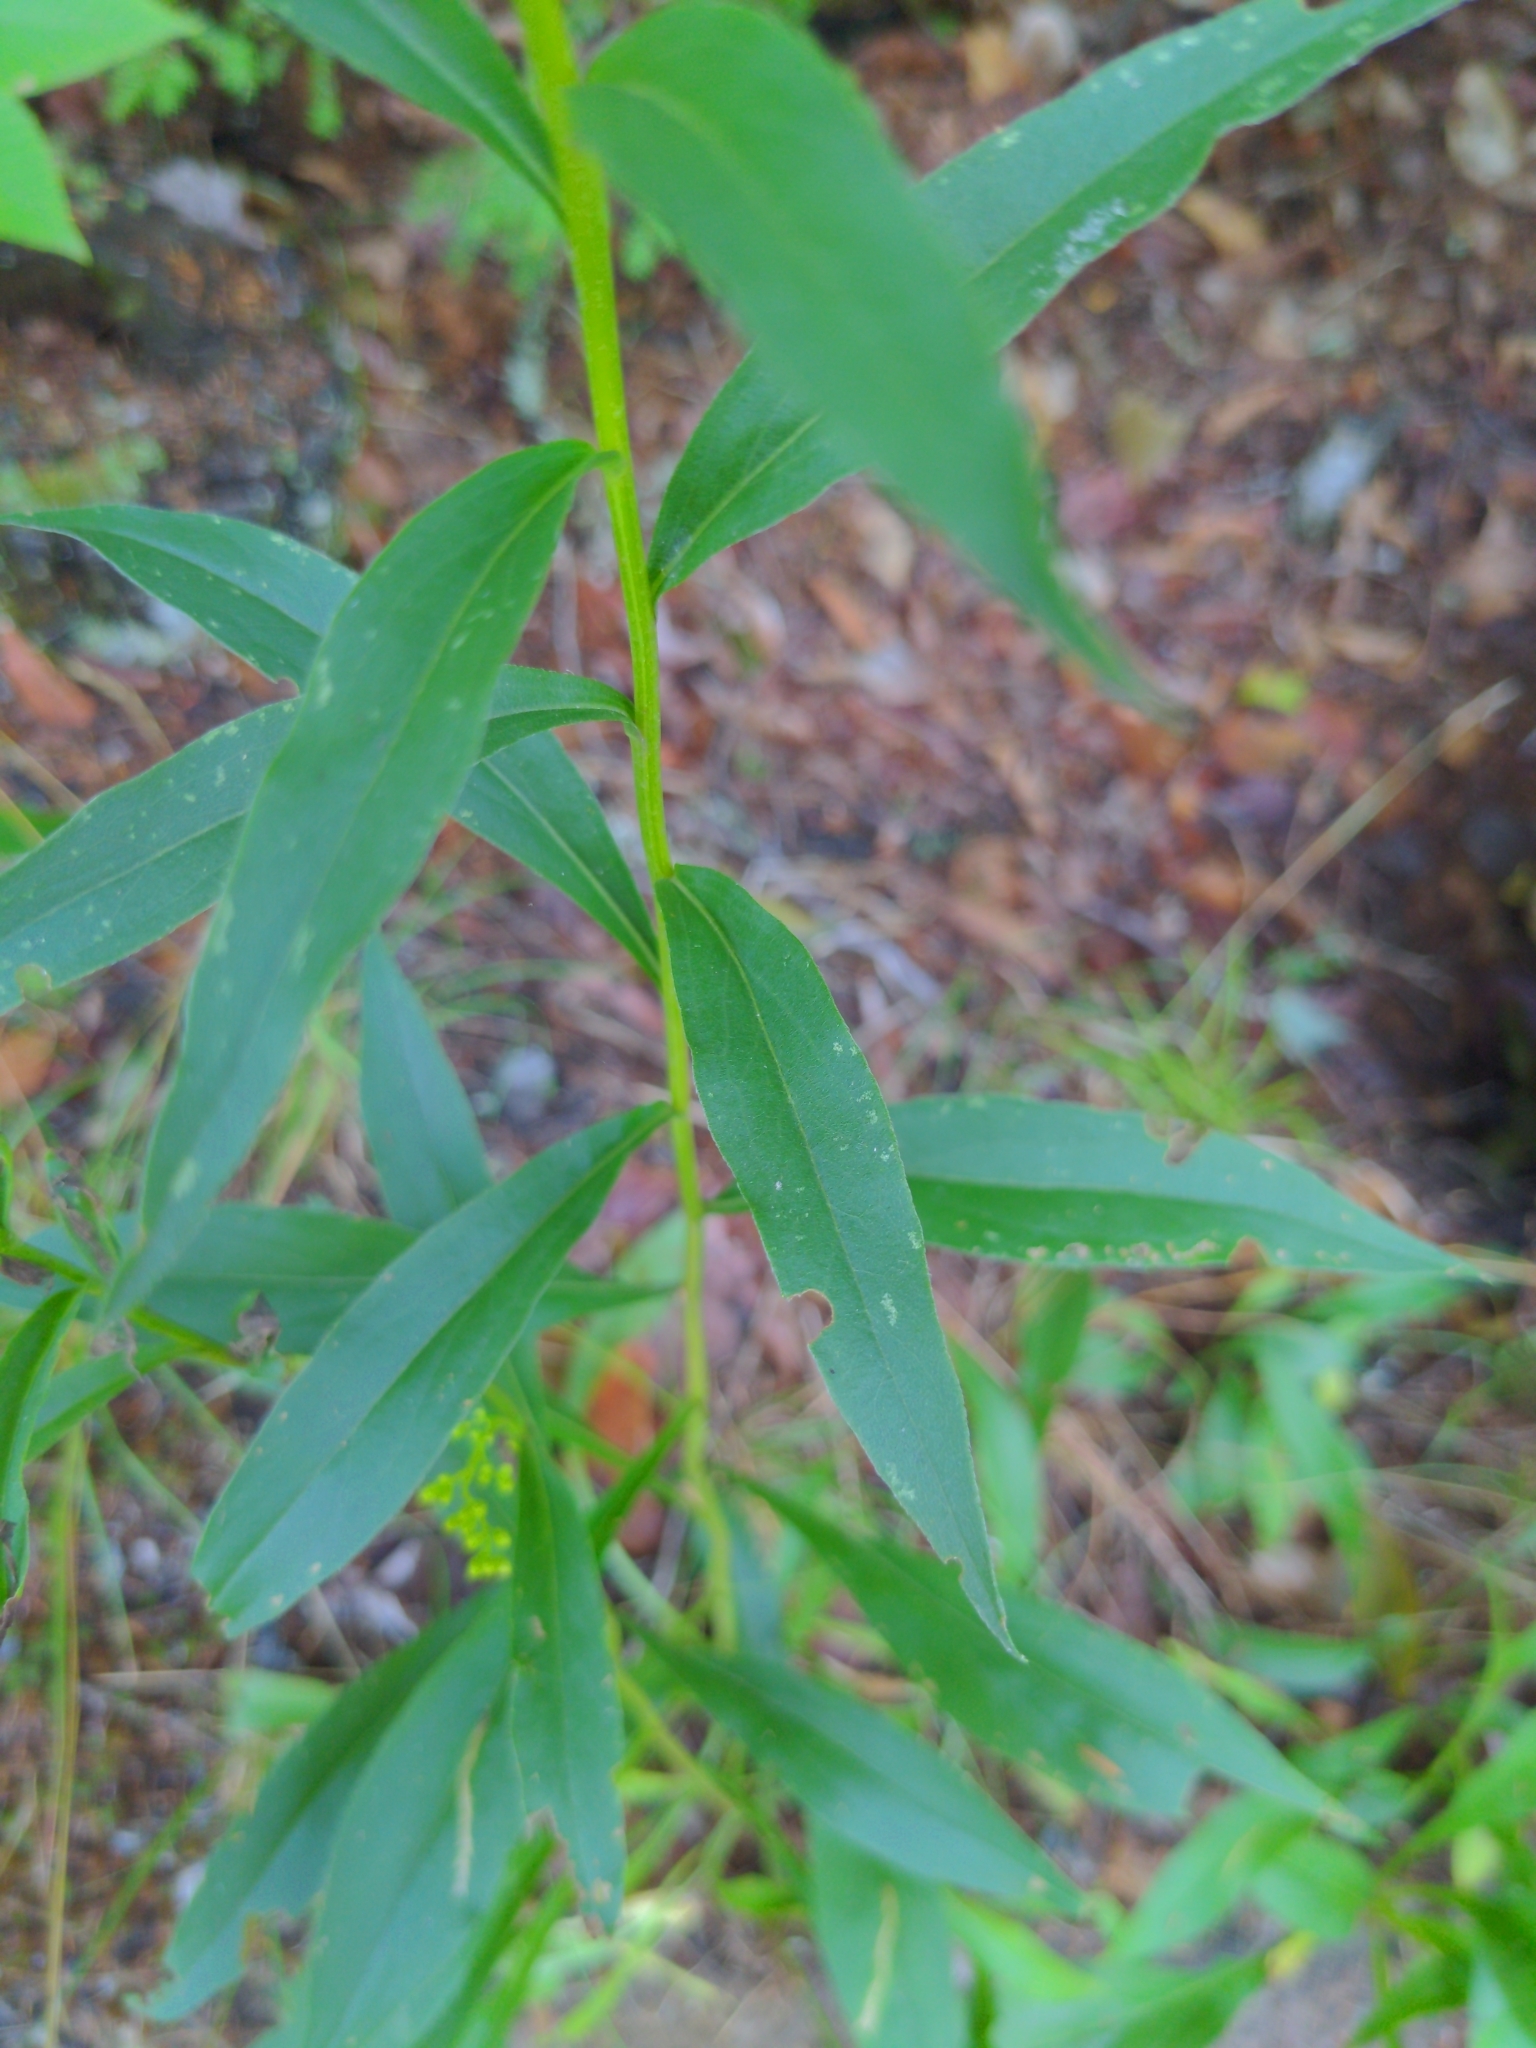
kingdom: Plantae
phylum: Tracheophyta
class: Magnoliopsida
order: Asterales
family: Asteraceae
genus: Solidago
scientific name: Solidago juncea
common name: Early goldenrod
